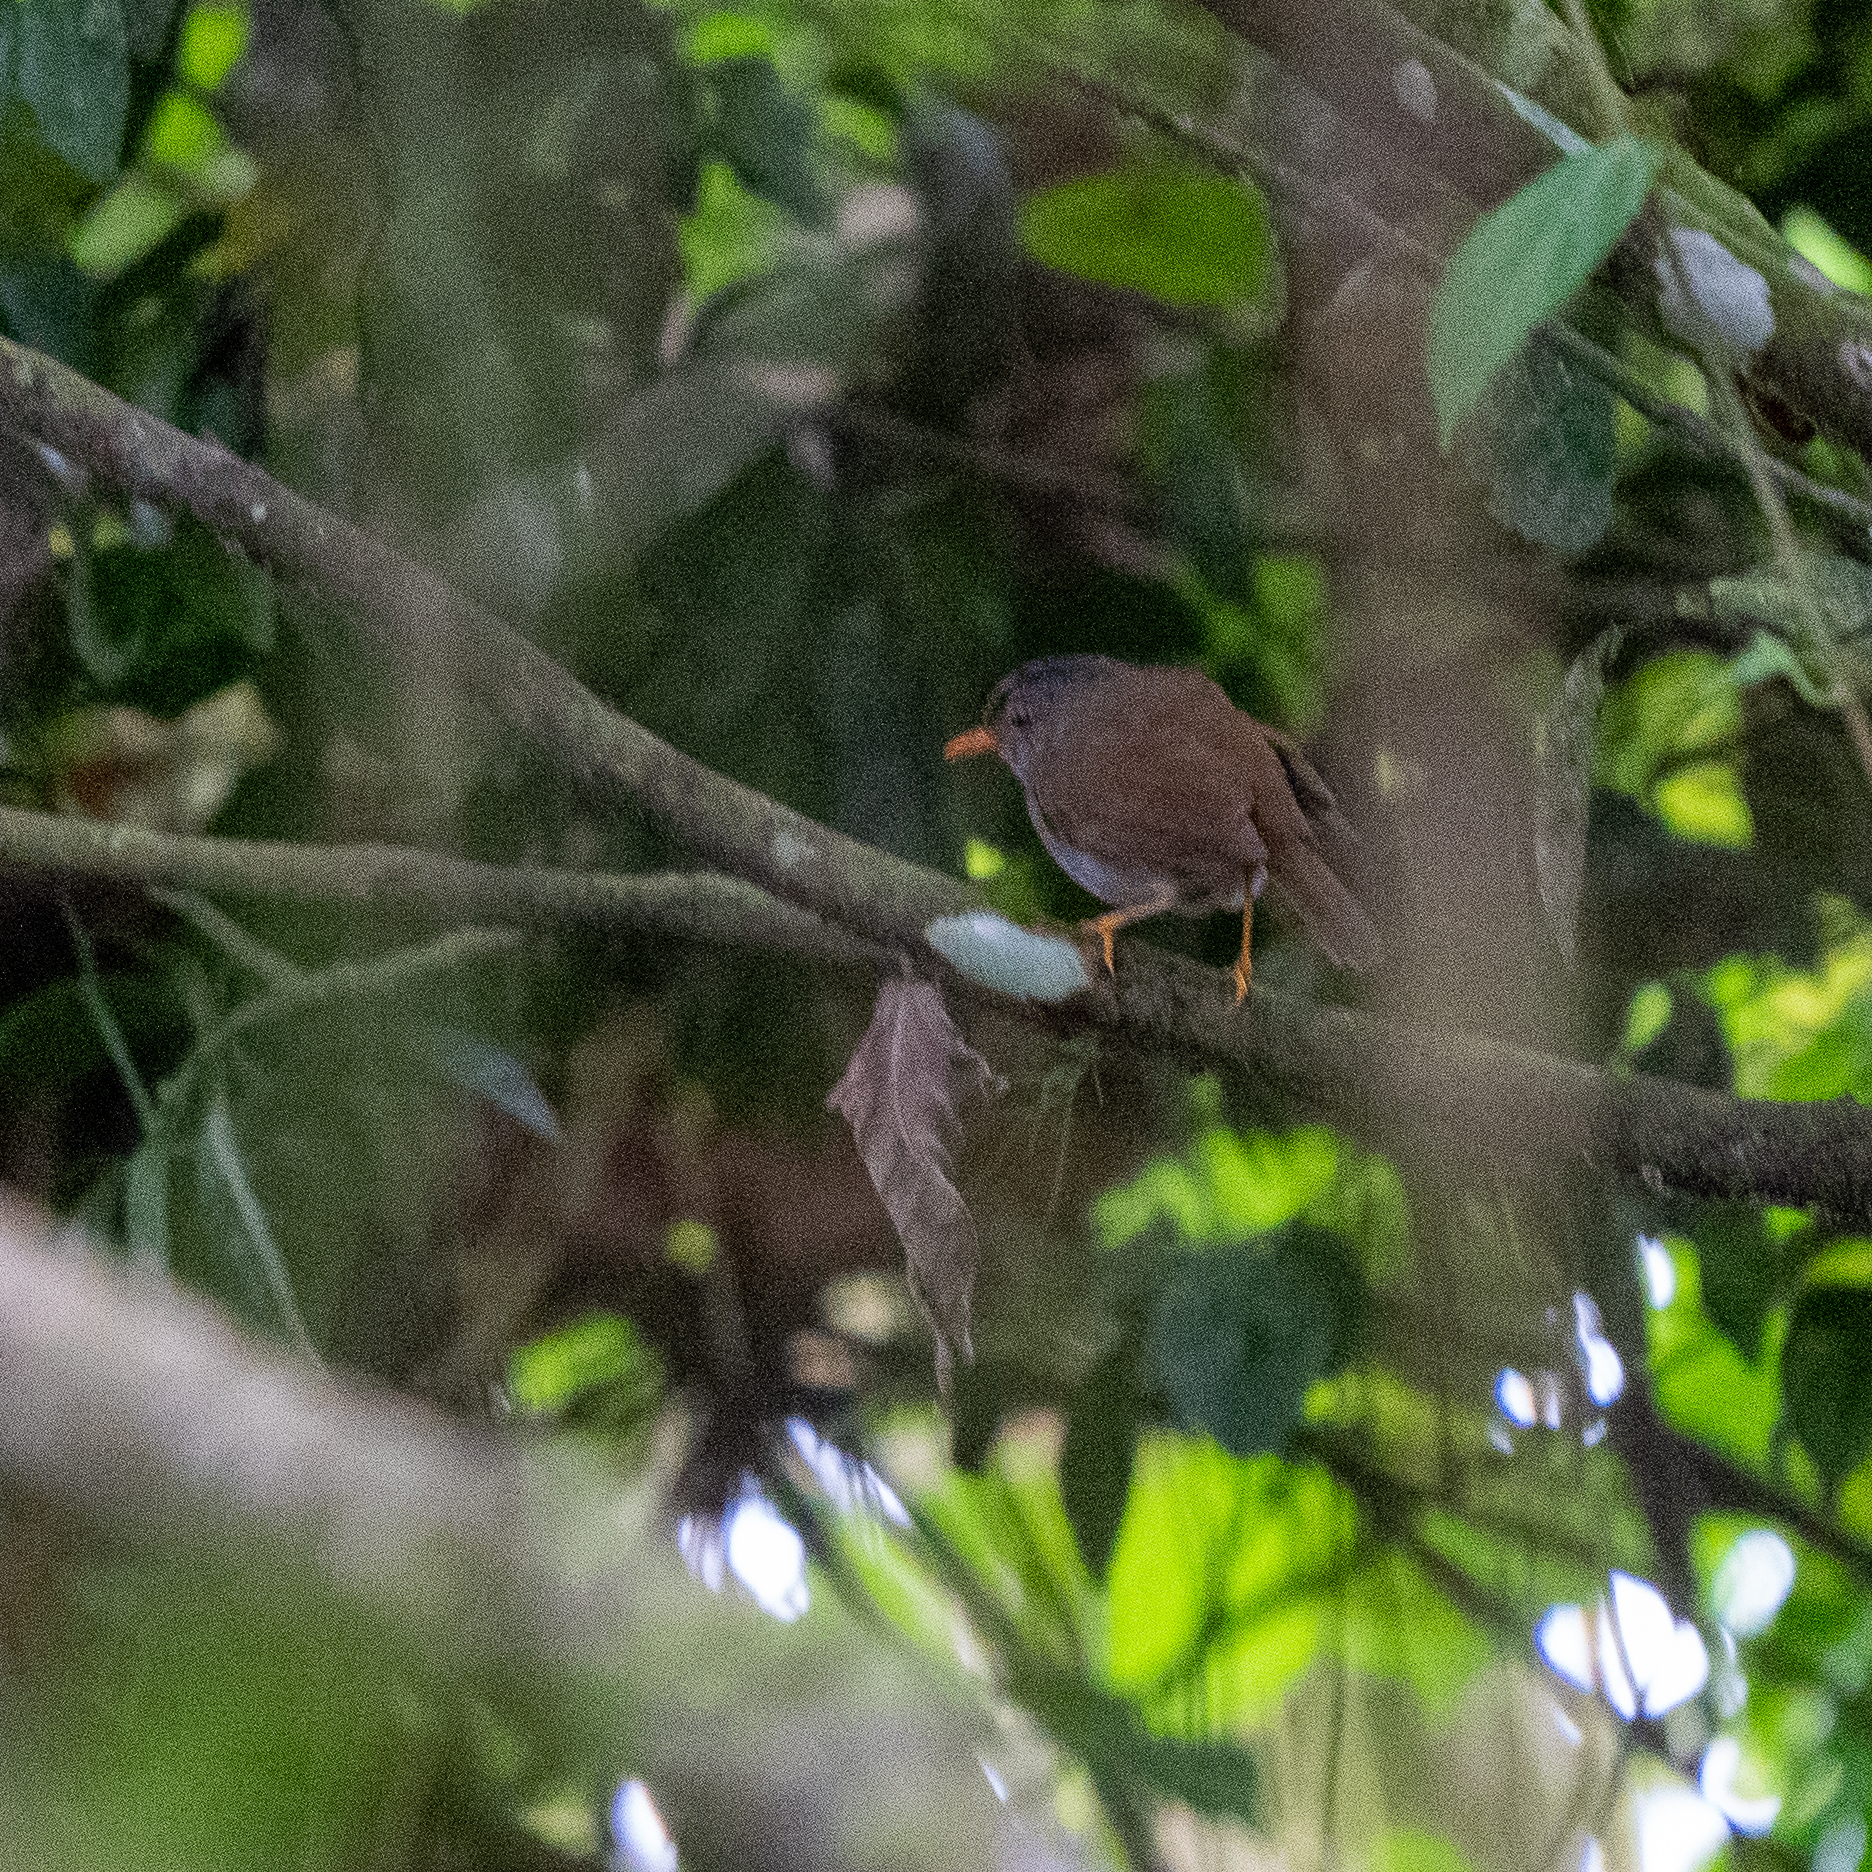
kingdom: Animalia
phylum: Chordata
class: Aves
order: Passeriformes
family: Turdidae
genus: Catharus
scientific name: Catharus aurantiirostris
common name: Orange-billed nightingale-thrush
